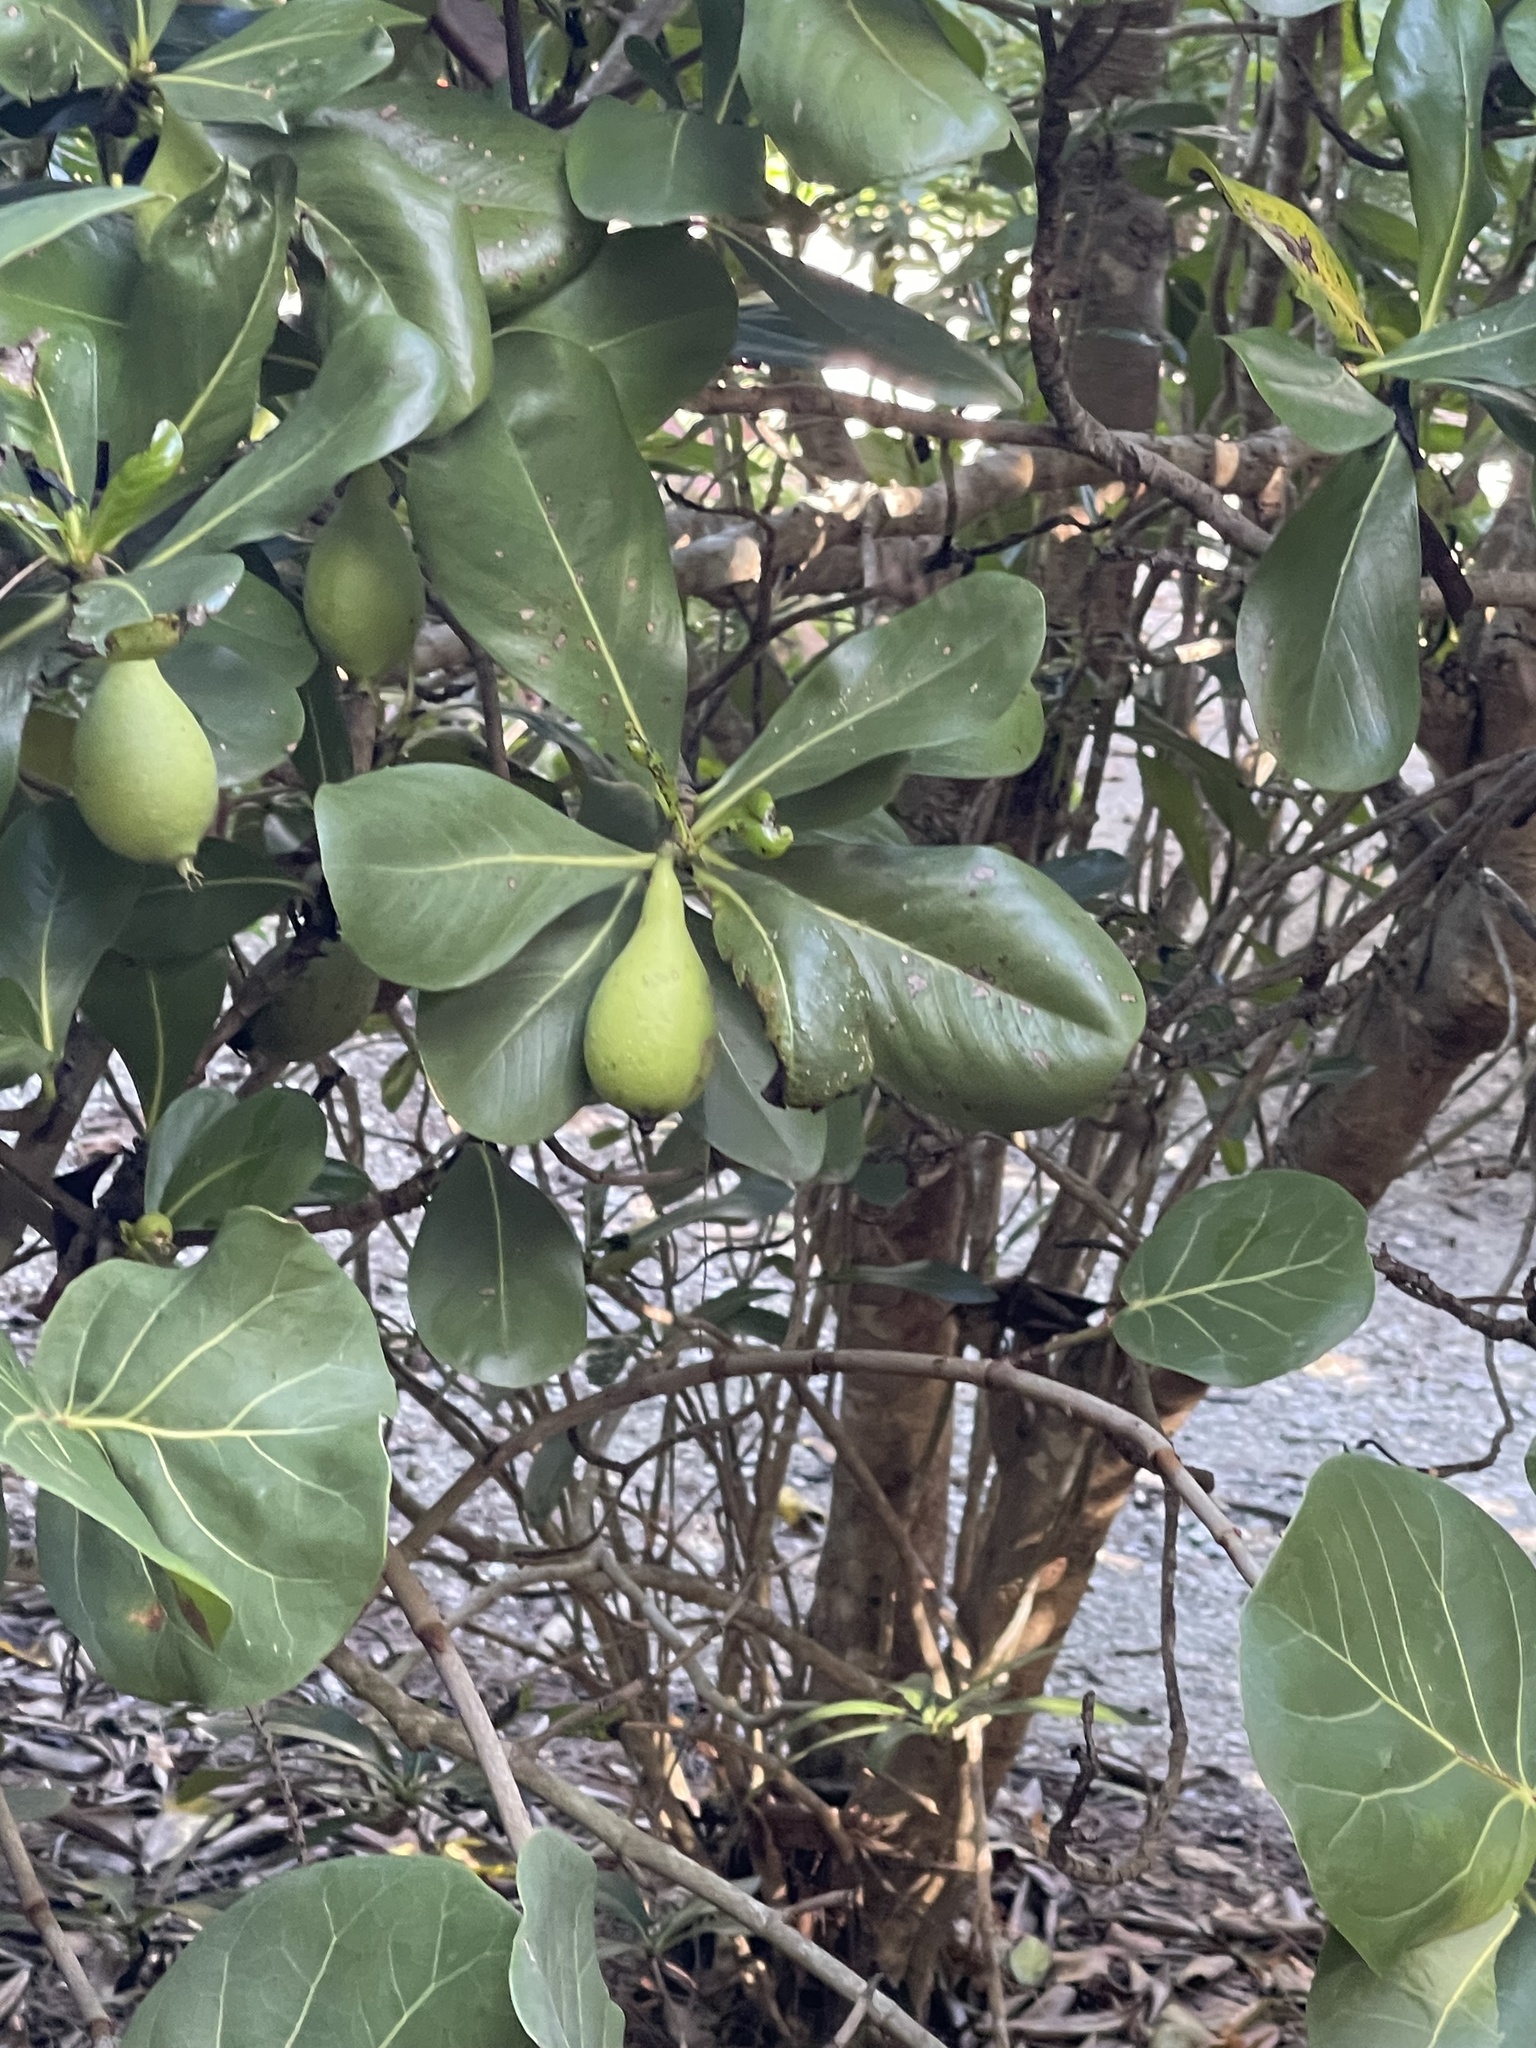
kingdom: Plantae
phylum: Tracheophyta
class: Magnoliopsida
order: Gentianales
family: Rubiaceae
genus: Casasia
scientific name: Casasia clusiifolia
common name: Seven-year apple
